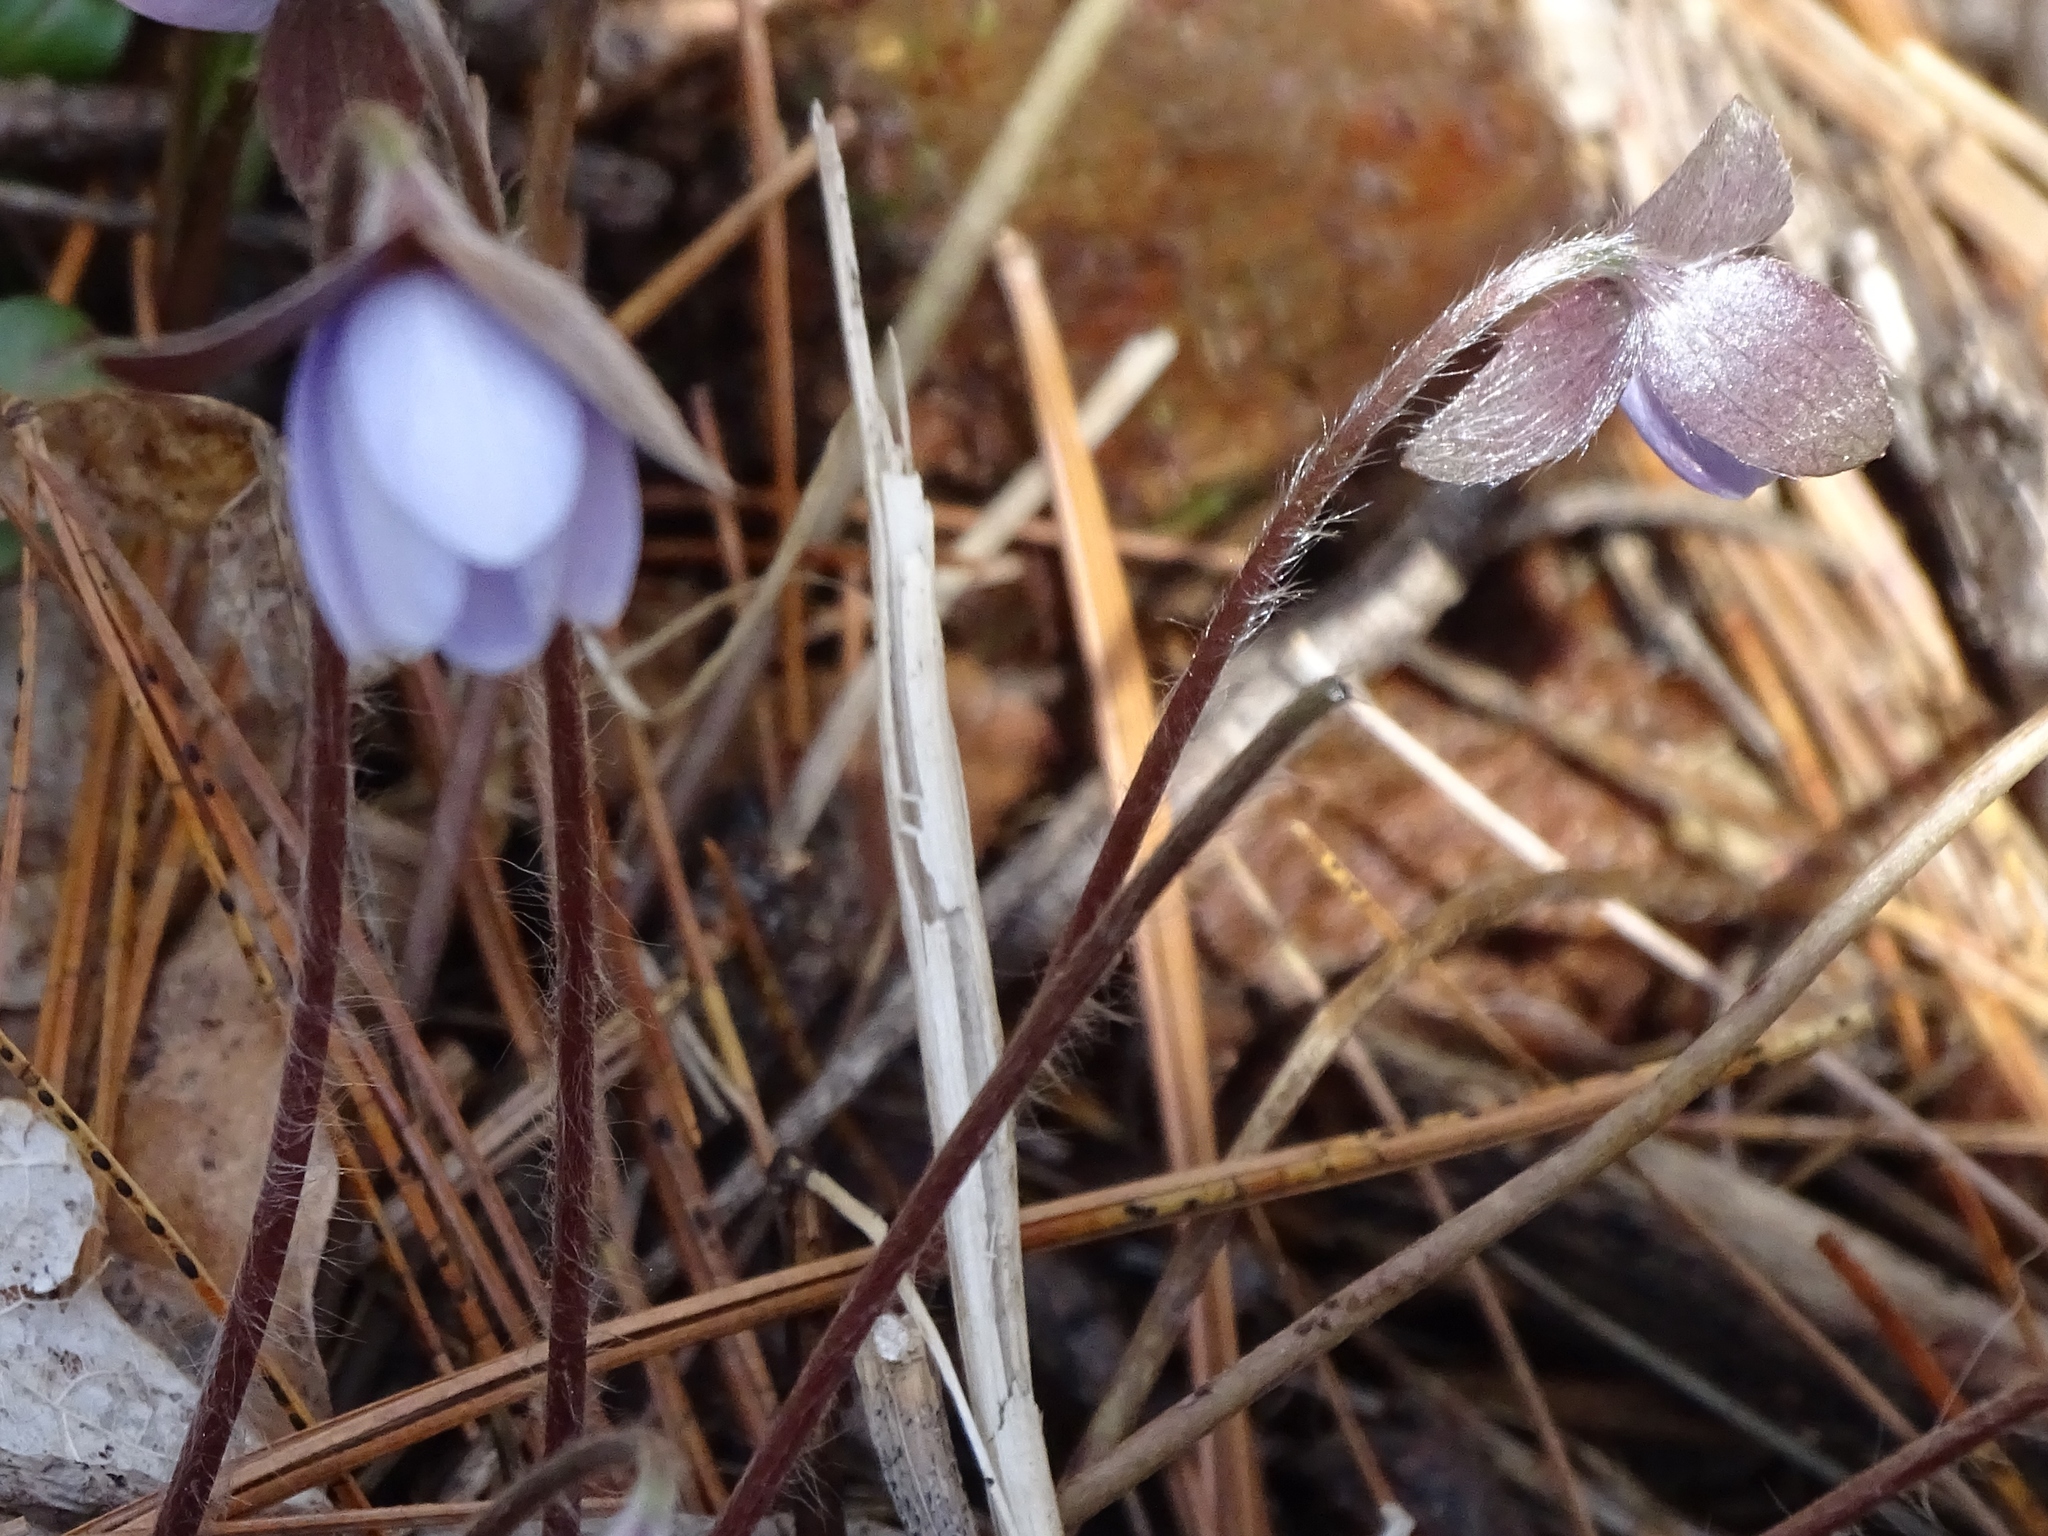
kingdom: Plantae
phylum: Tracheophyta
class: Magnoliopsida
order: Ranunculales
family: Ranunculaceae
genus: Hepatica
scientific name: Hepatica acutiloba
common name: Sharp-lobed hepatica
